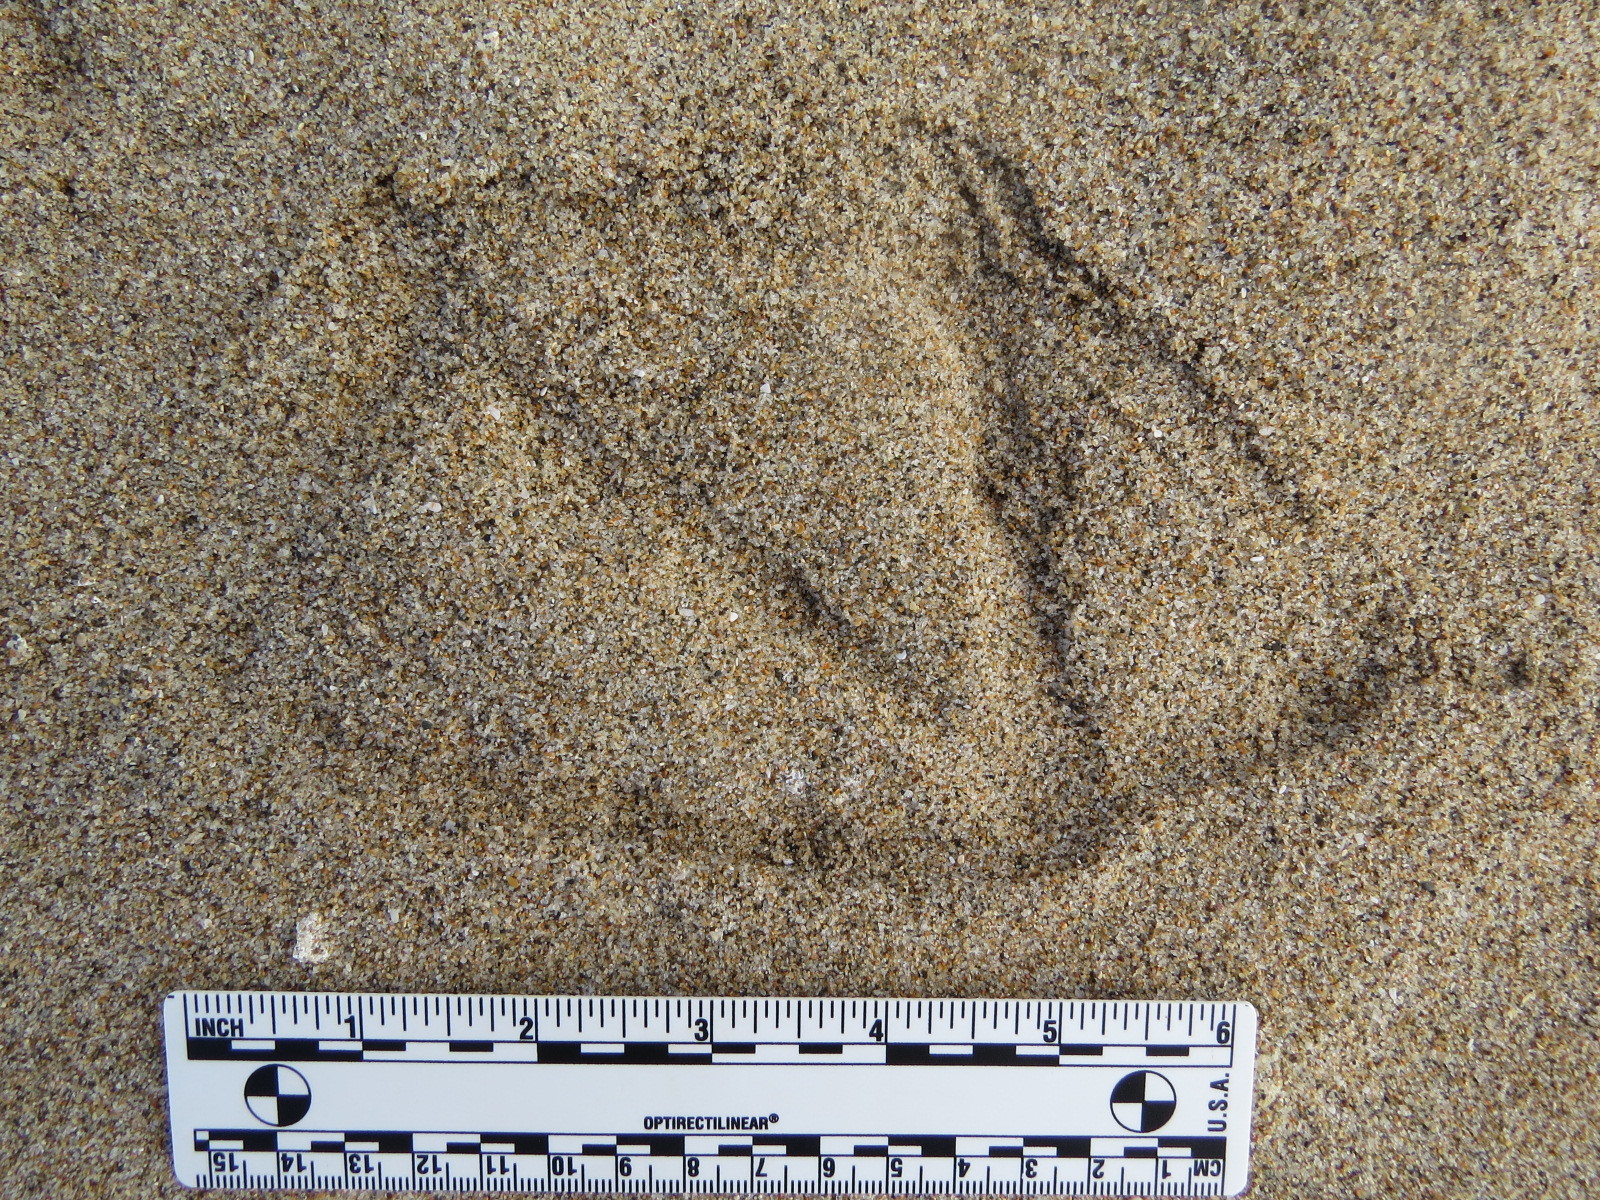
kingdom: Animalia
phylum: Chordata
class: Aves
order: Pelecaniformes
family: Pelecanidae
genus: Pelecanus
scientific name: Pelecanus occidentalis
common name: Brown pelican
